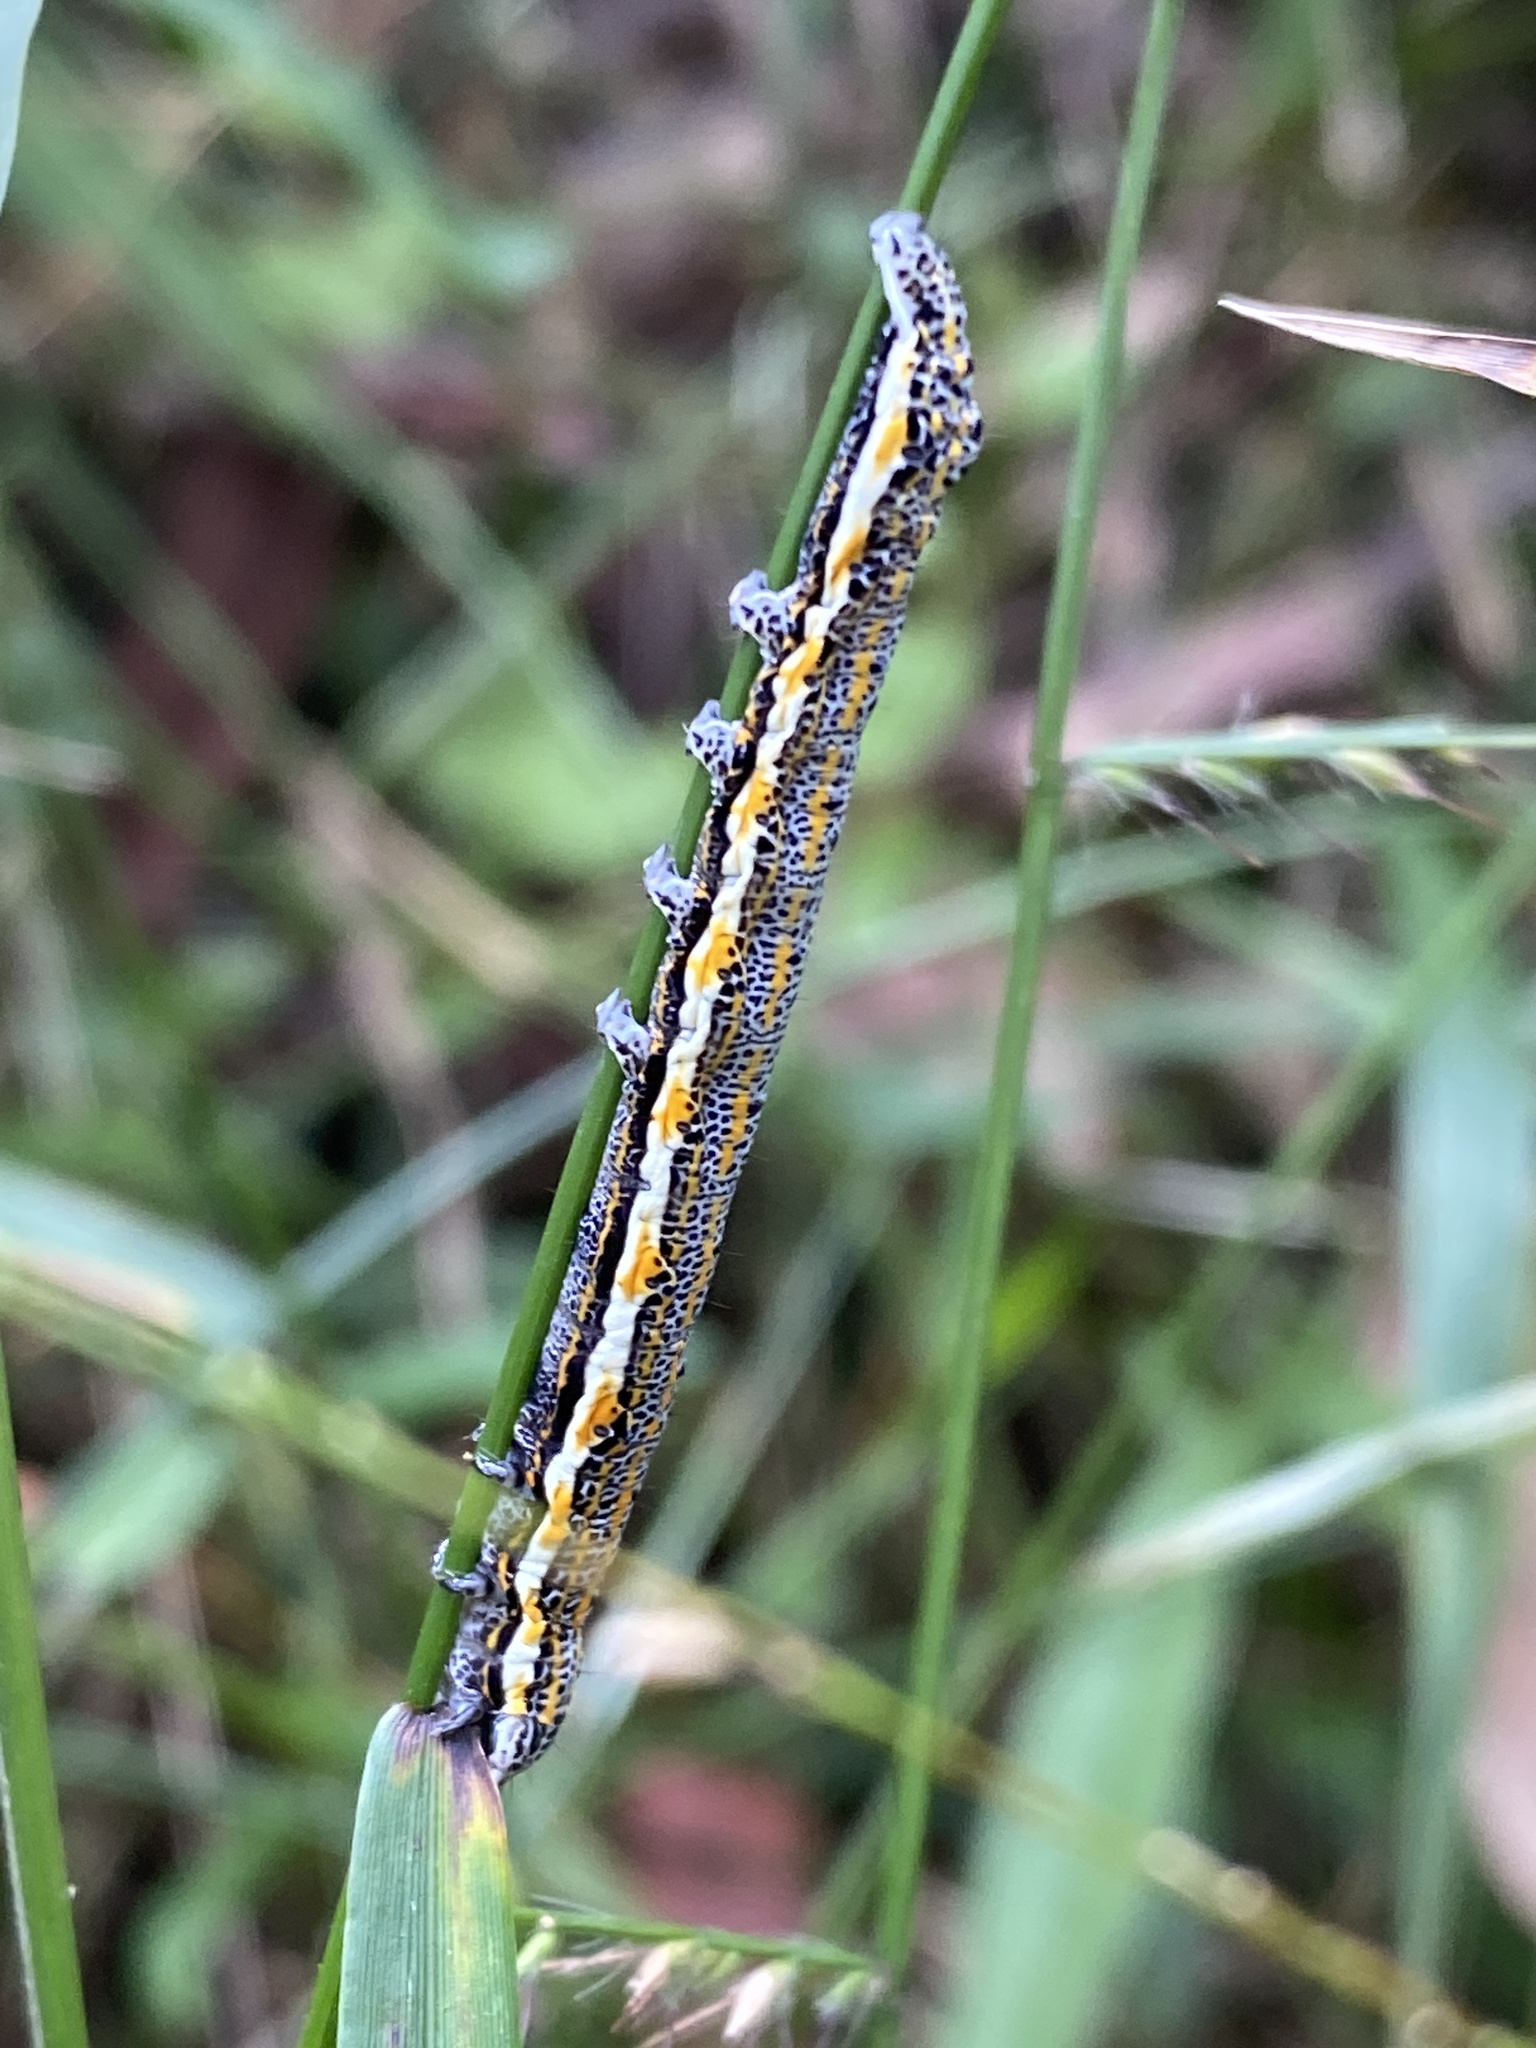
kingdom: Animalia
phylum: Arthropoda
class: Insecta
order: Lepidoptera
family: Noctuidae
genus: Aedia
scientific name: Aedia leucomelas
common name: Sorcerer
